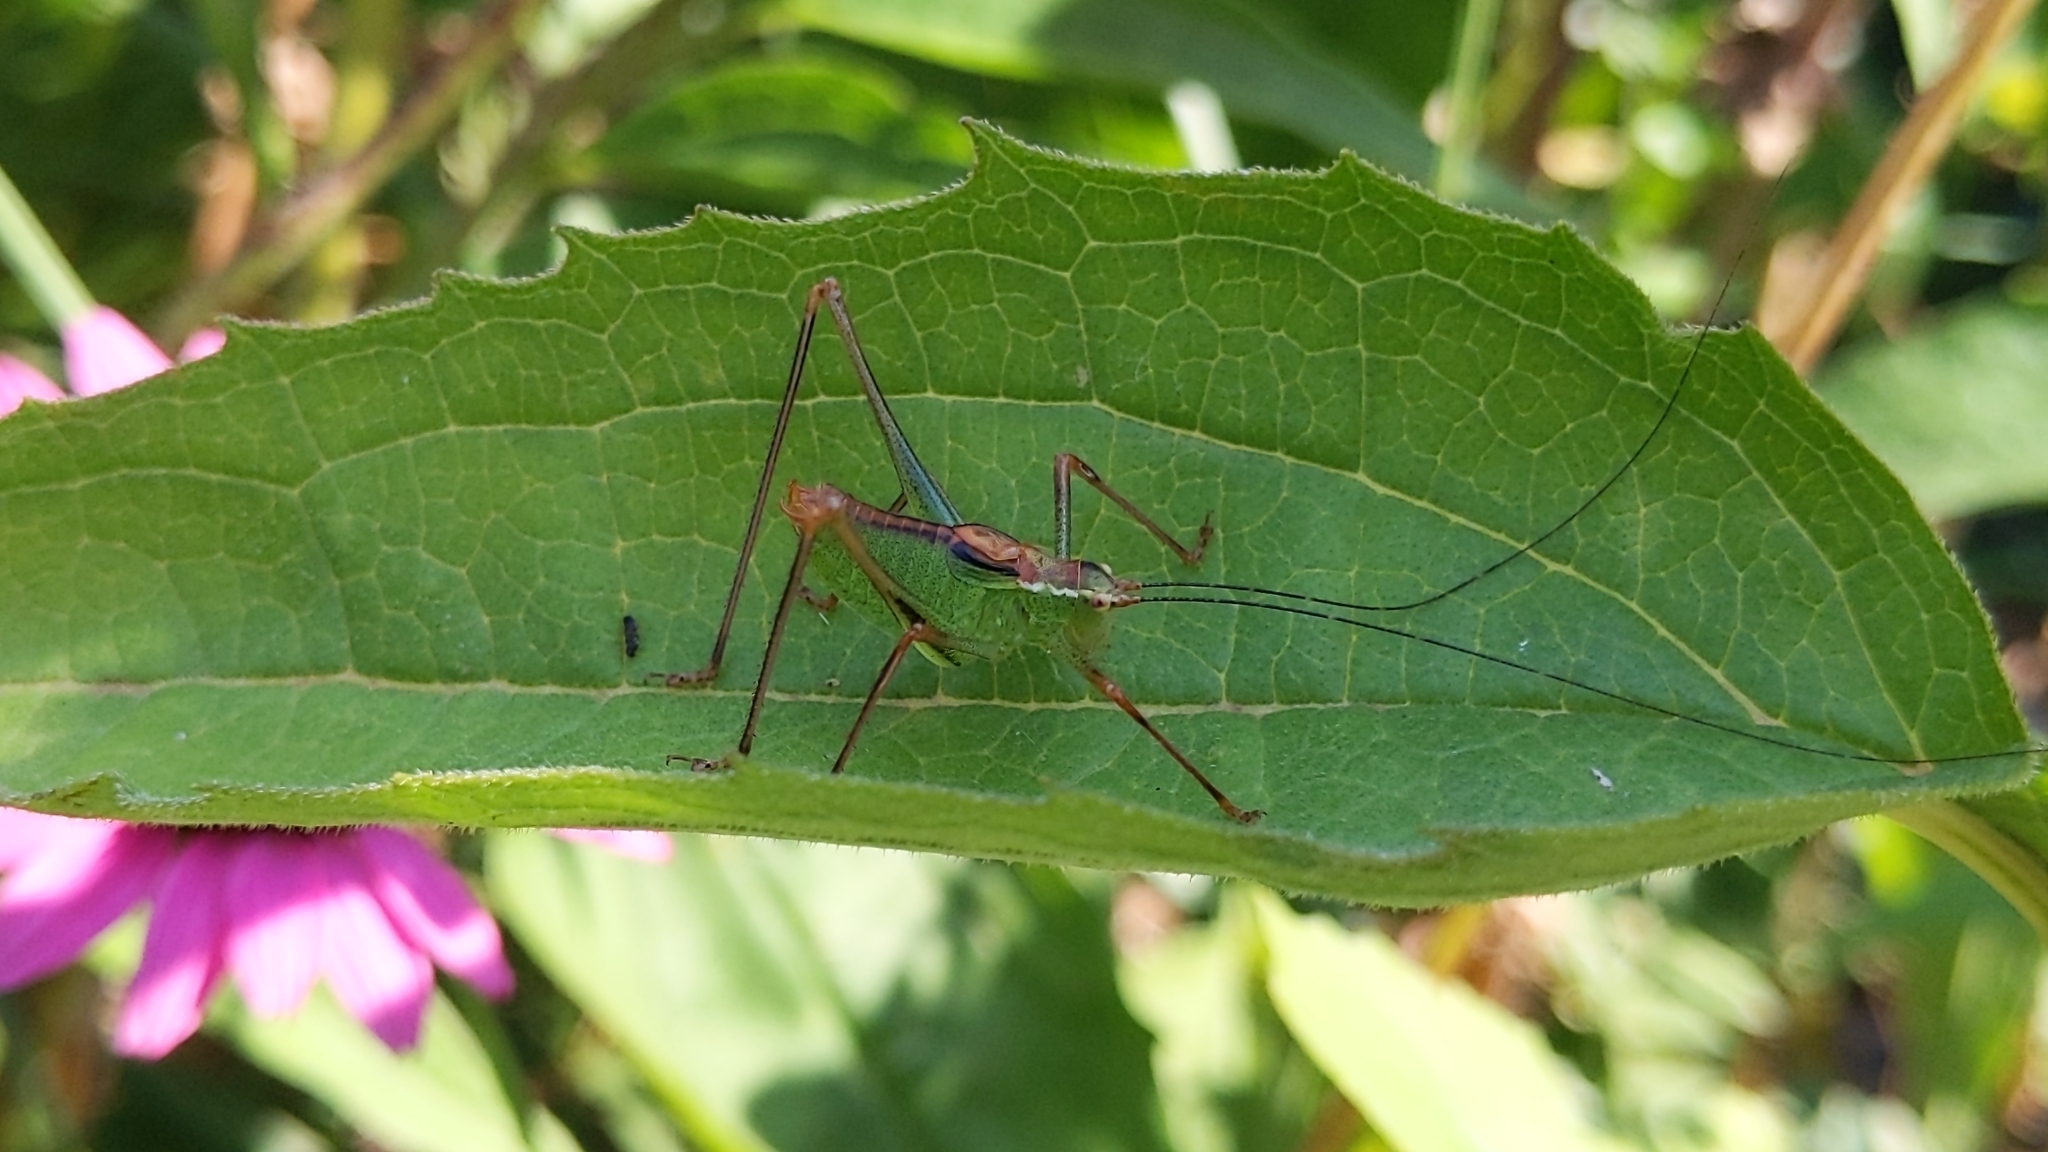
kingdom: Animalia
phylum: Arthropoda
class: Insecta
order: Orthoptera
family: Tettigoniidae
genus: Leptophyes
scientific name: Leptophyes punctatissima
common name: Speckled bush-cricket
